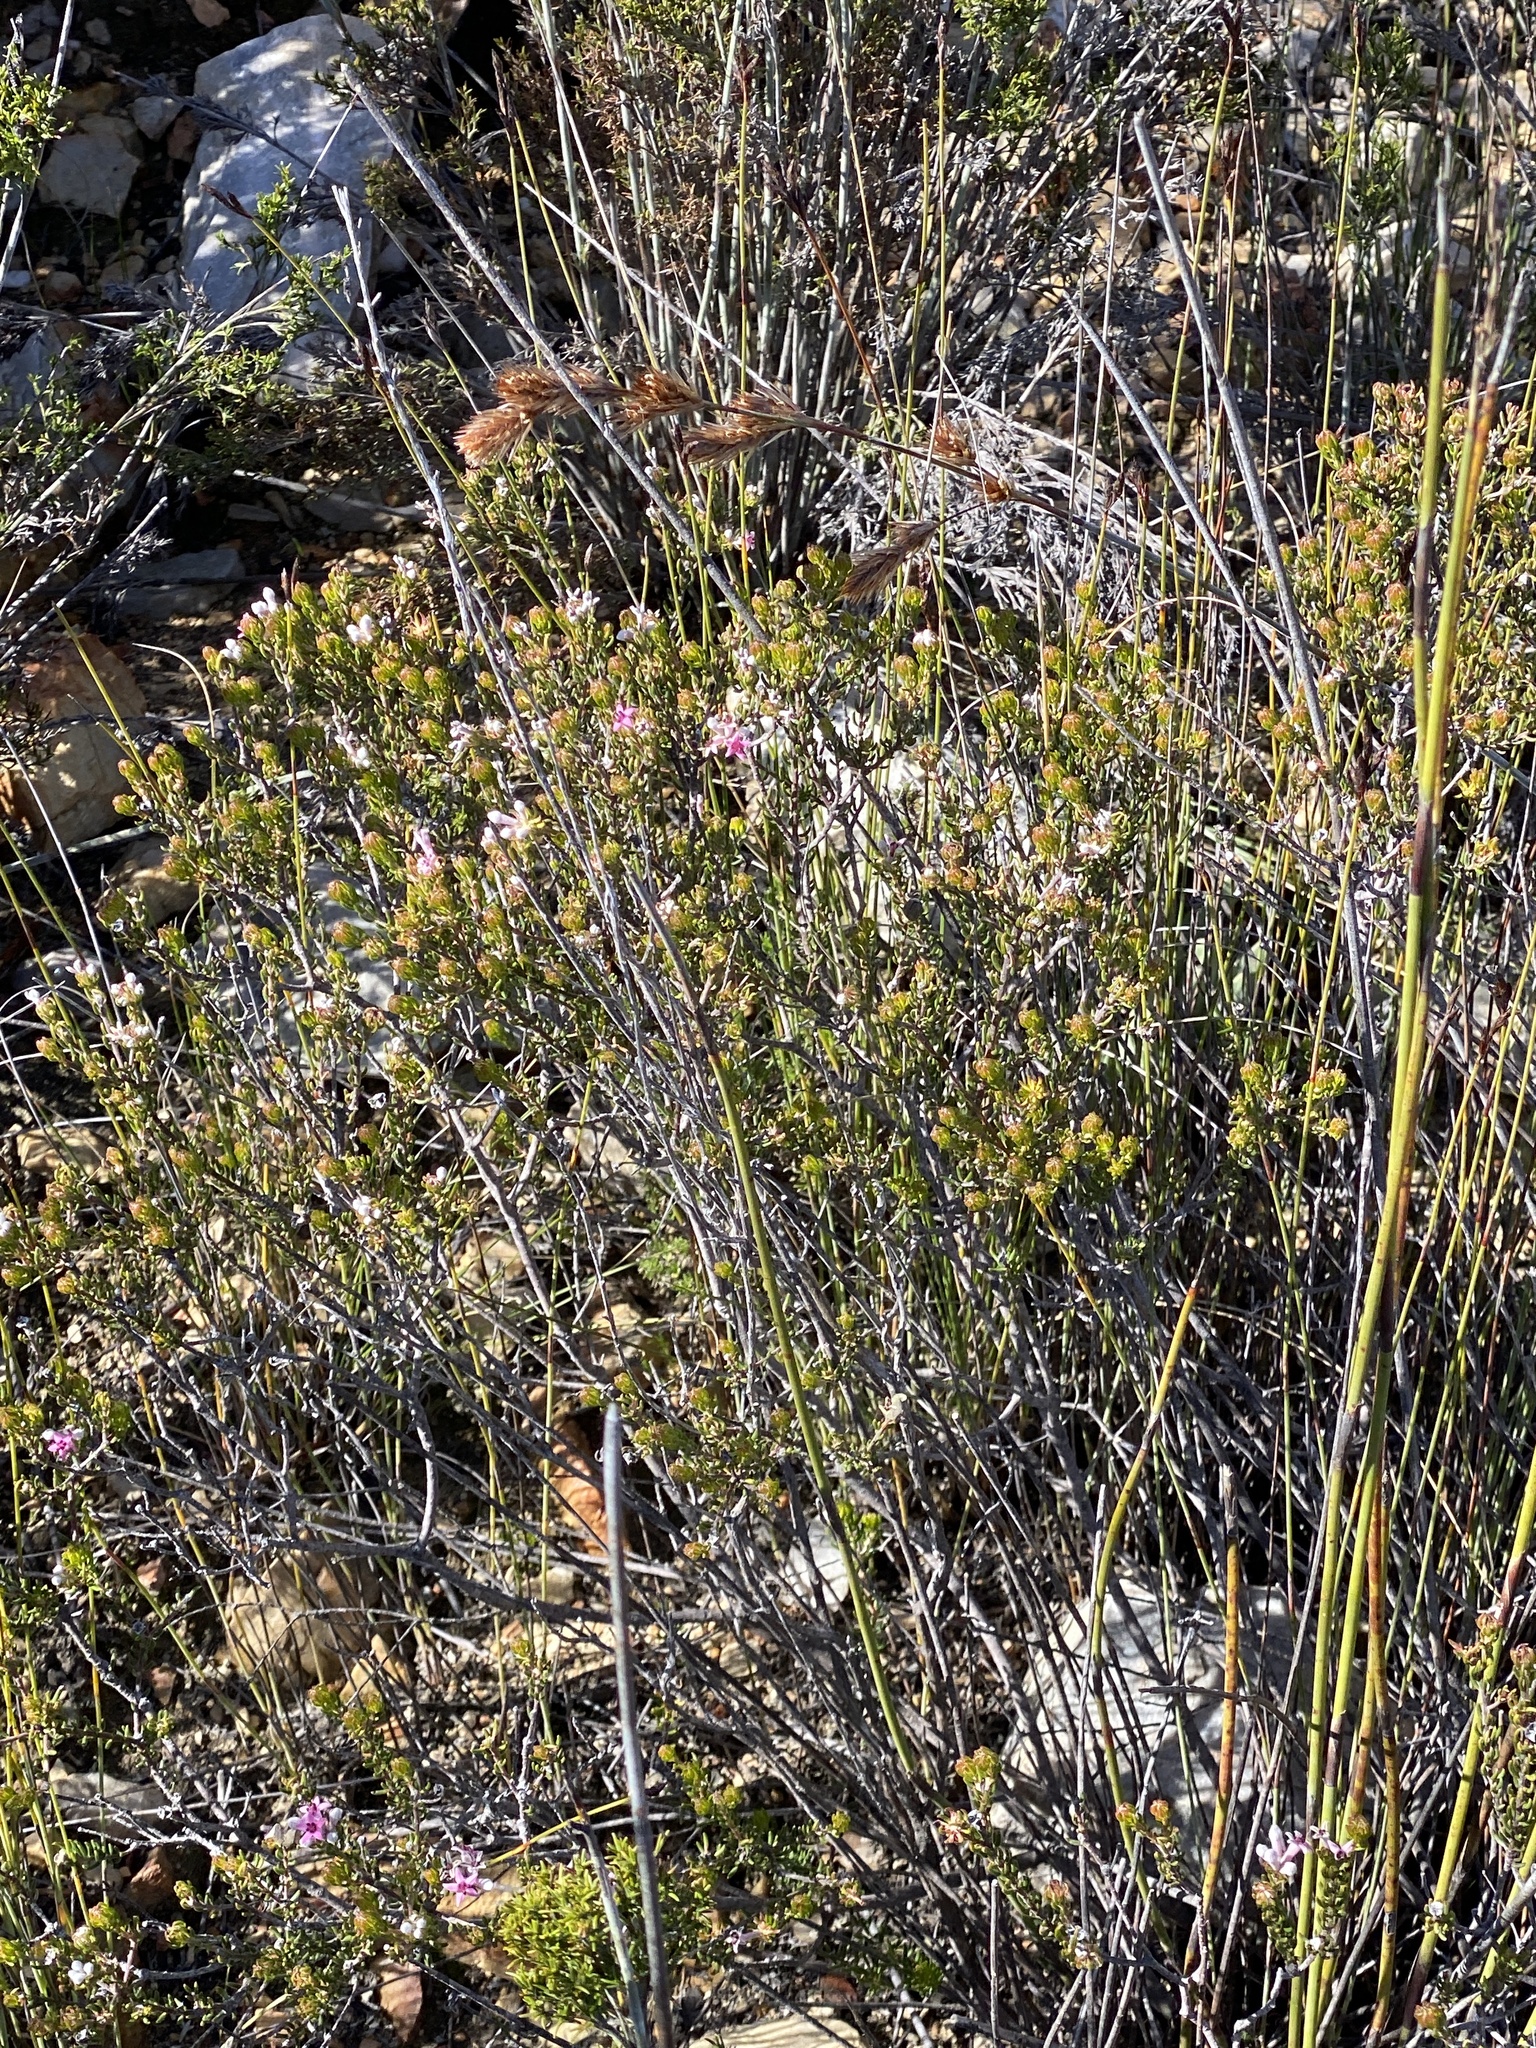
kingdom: Plantae
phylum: Tracheophyta
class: Magnoliopsida
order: Rosales
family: Rhamnaceae
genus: Phylica
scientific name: Phylica lachneaeoides
